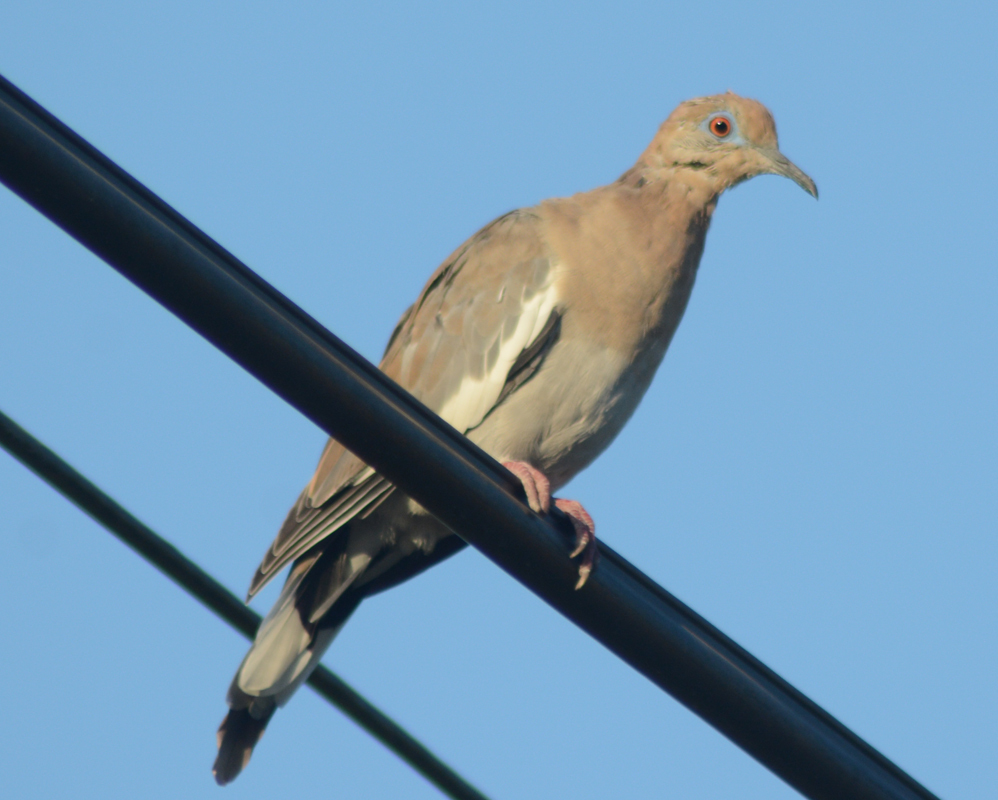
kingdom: Animalia
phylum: Chordata
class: Aves
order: Columbiformes
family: Columbidae
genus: Zenaida
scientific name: Zenaida asiatica
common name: White-winged dove
